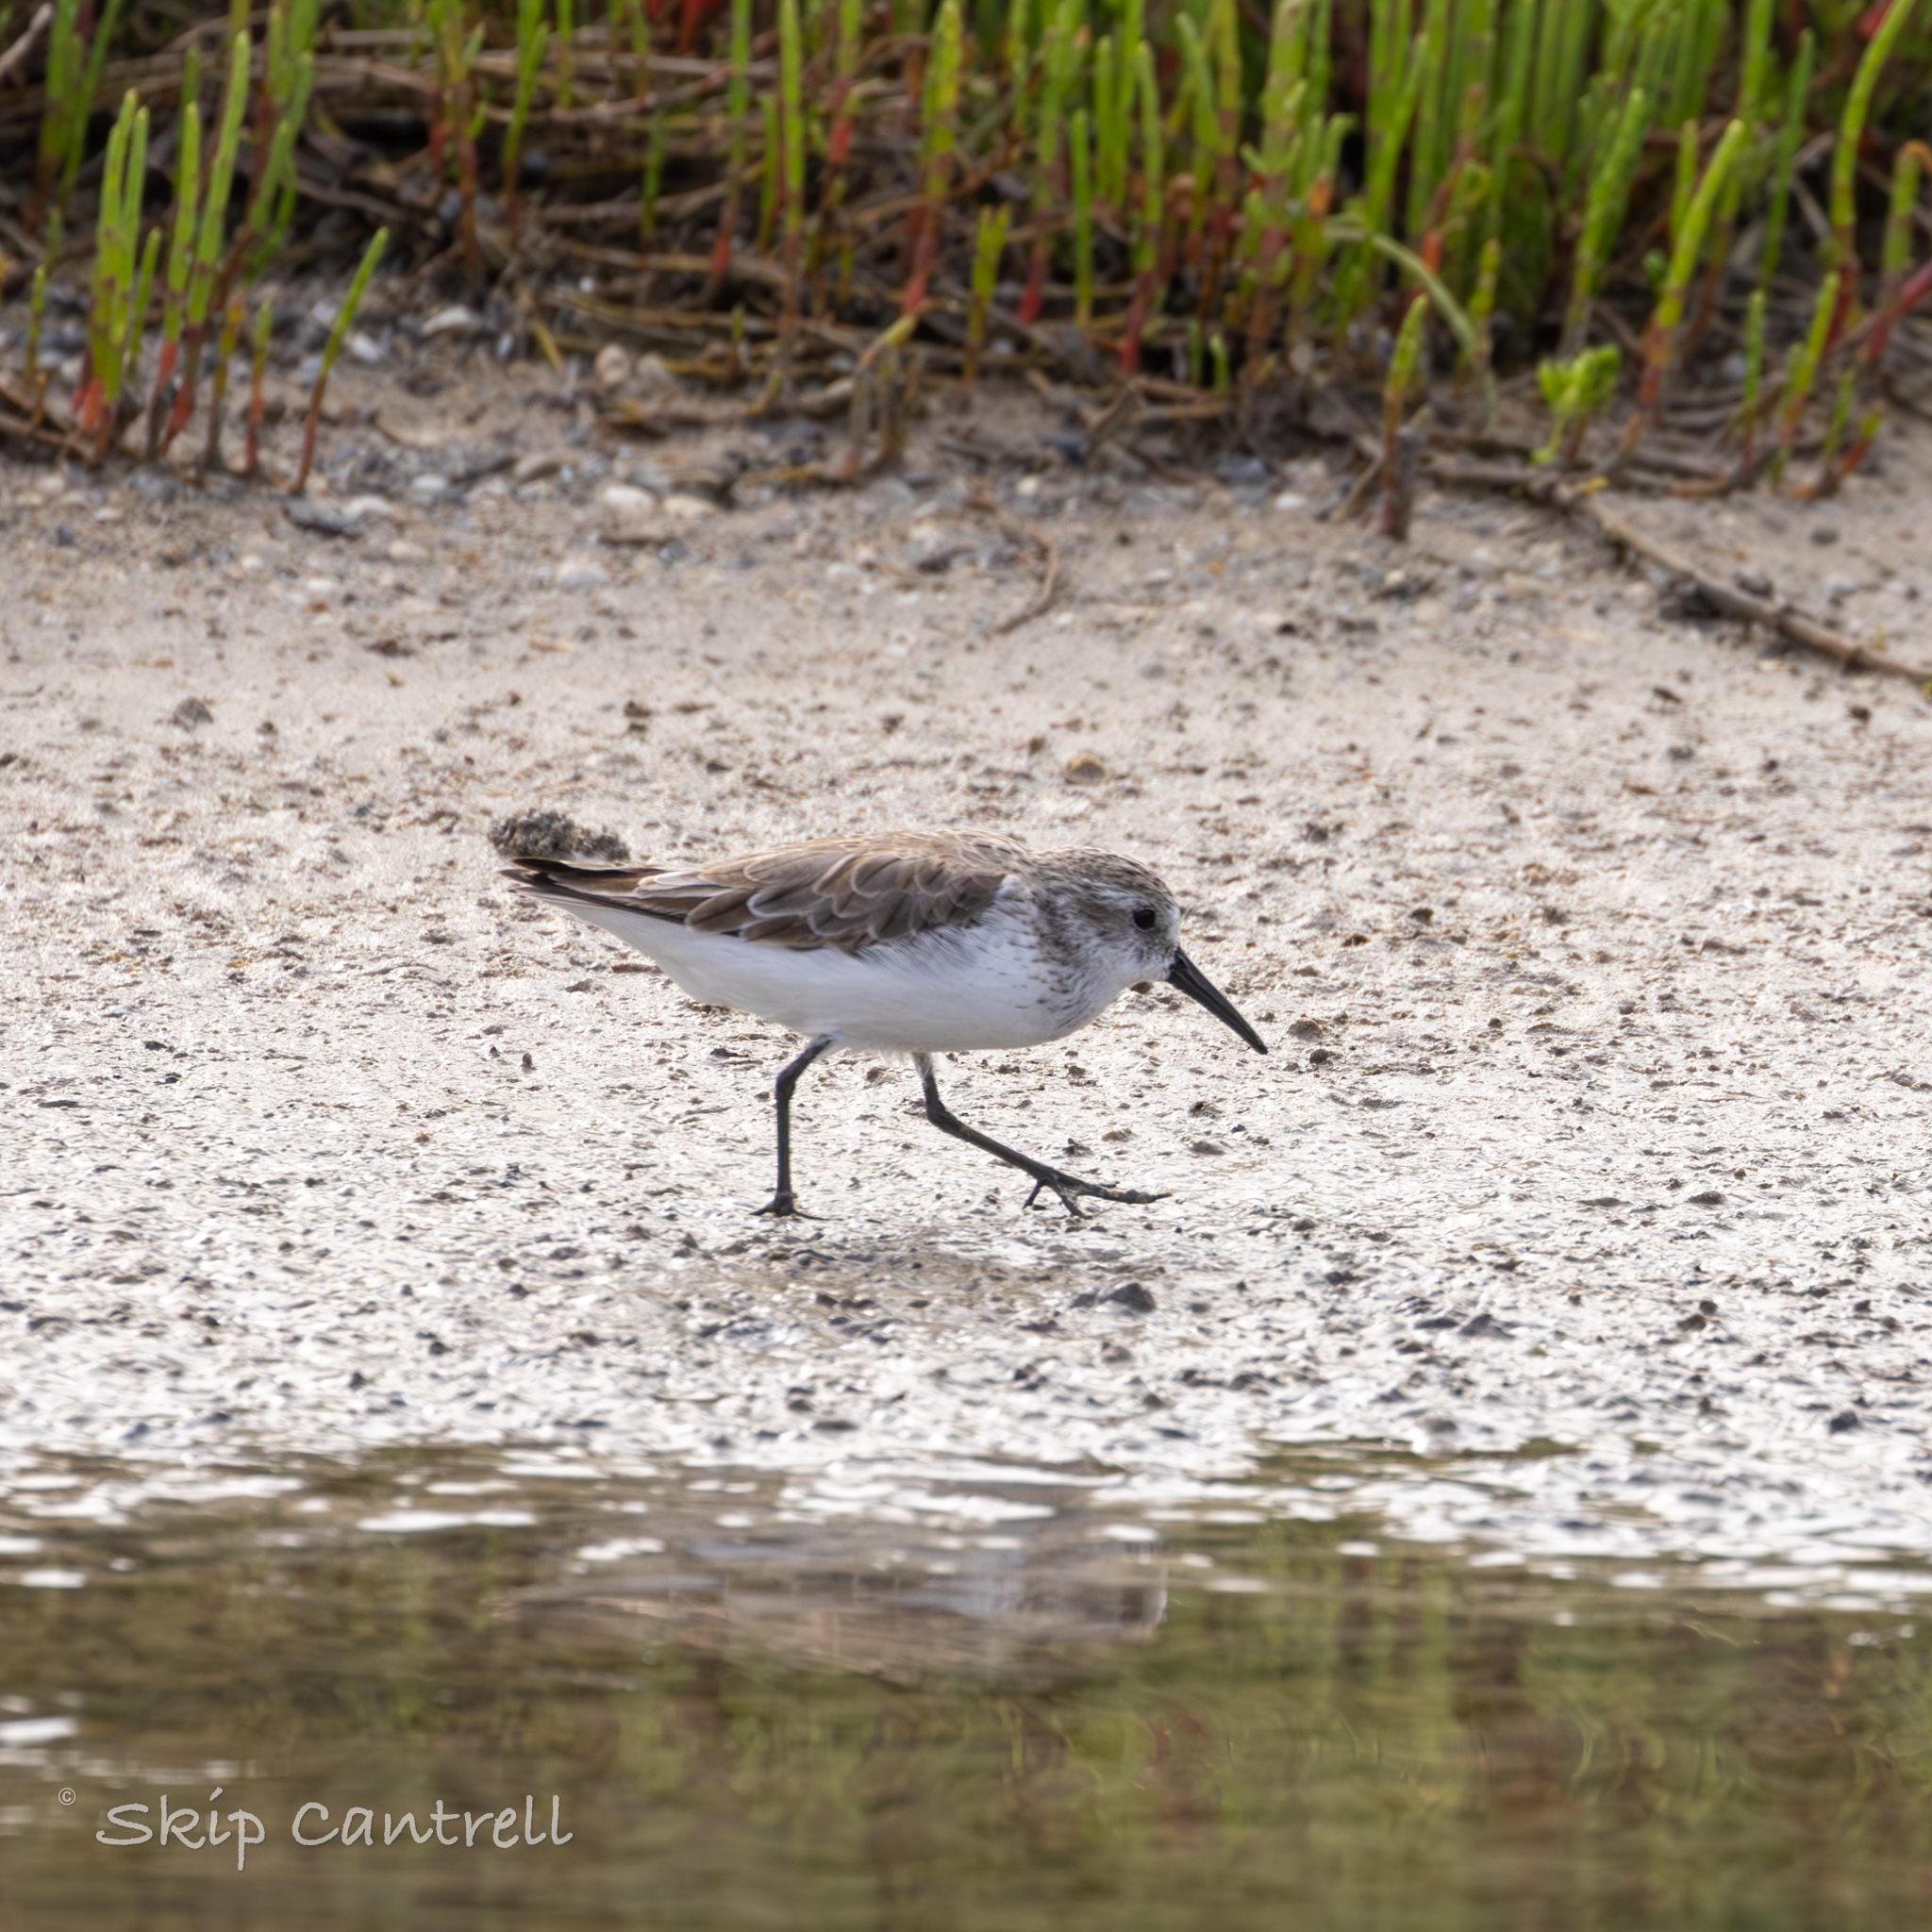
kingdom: Animalia
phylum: Chordata
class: Aves
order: Charadriiformes
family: Scolopacidae
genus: Calidris
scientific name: Calidris mauri
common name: Western sandpiper
